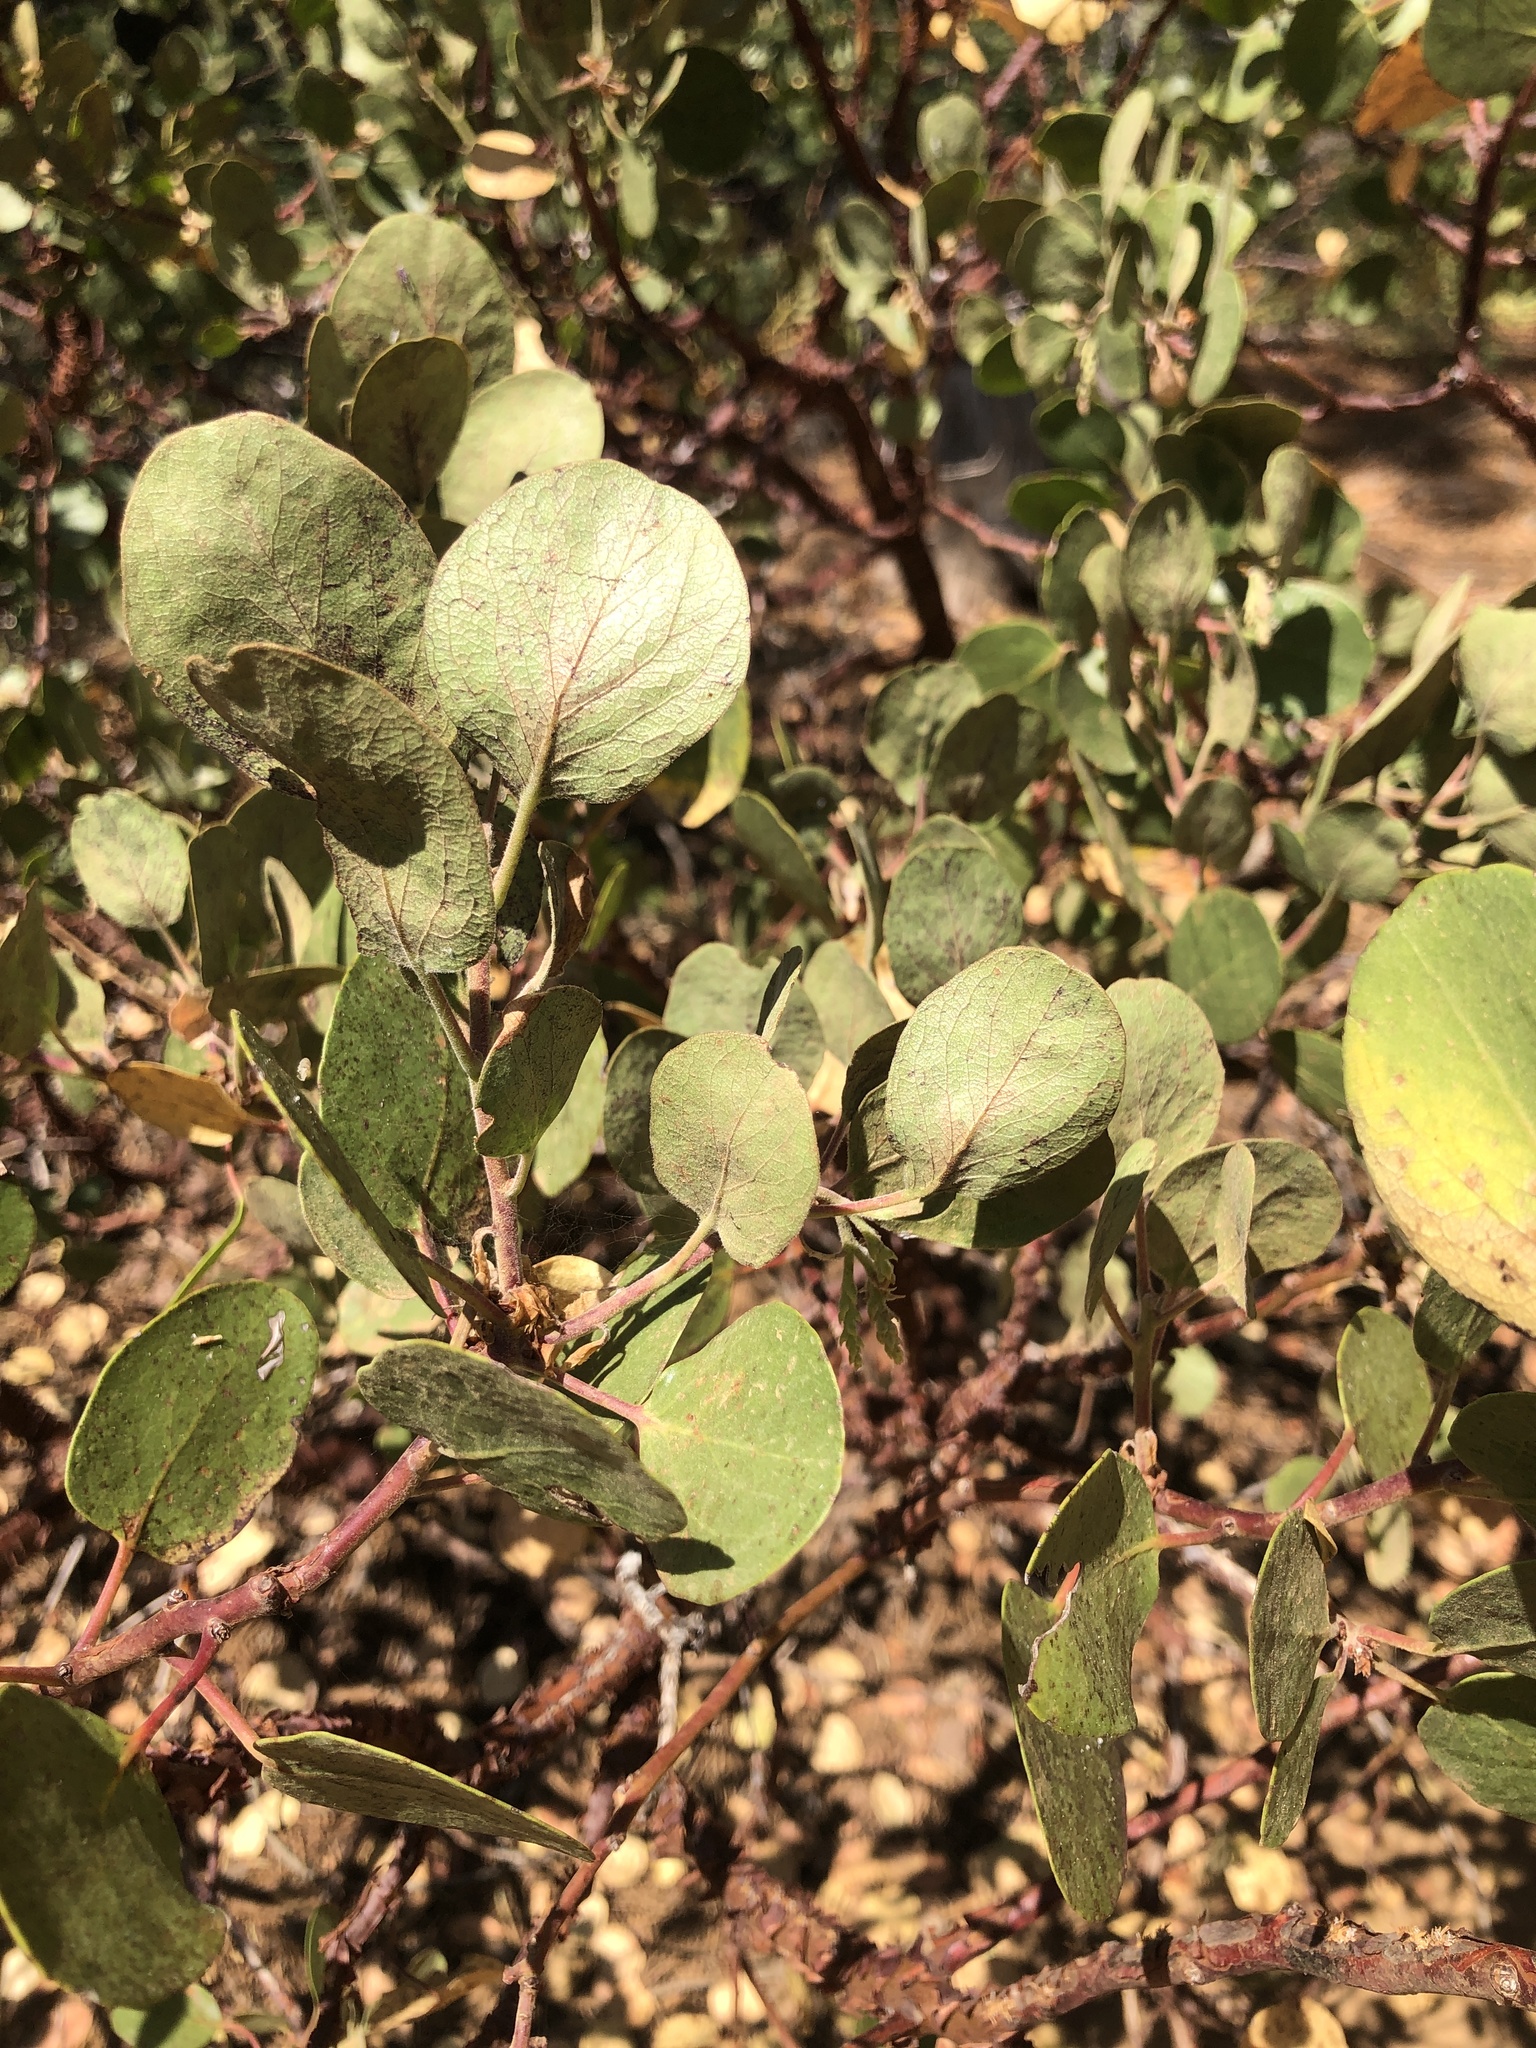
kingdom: Plantae
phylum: Tracheophyta
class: Magnoliopsida
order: Ericales
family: Ericaceae
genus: Arctostaphylos
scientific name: Arctostaphylos patula
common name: Green-leaf manzanita
